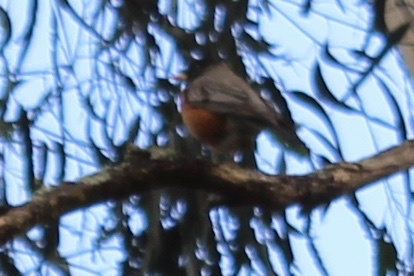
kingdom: Animalia
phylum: Chordata
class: Aves
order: Passeriformes
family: Turdidae
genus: Turdus
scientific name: Turdus migratorius
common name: American robin
